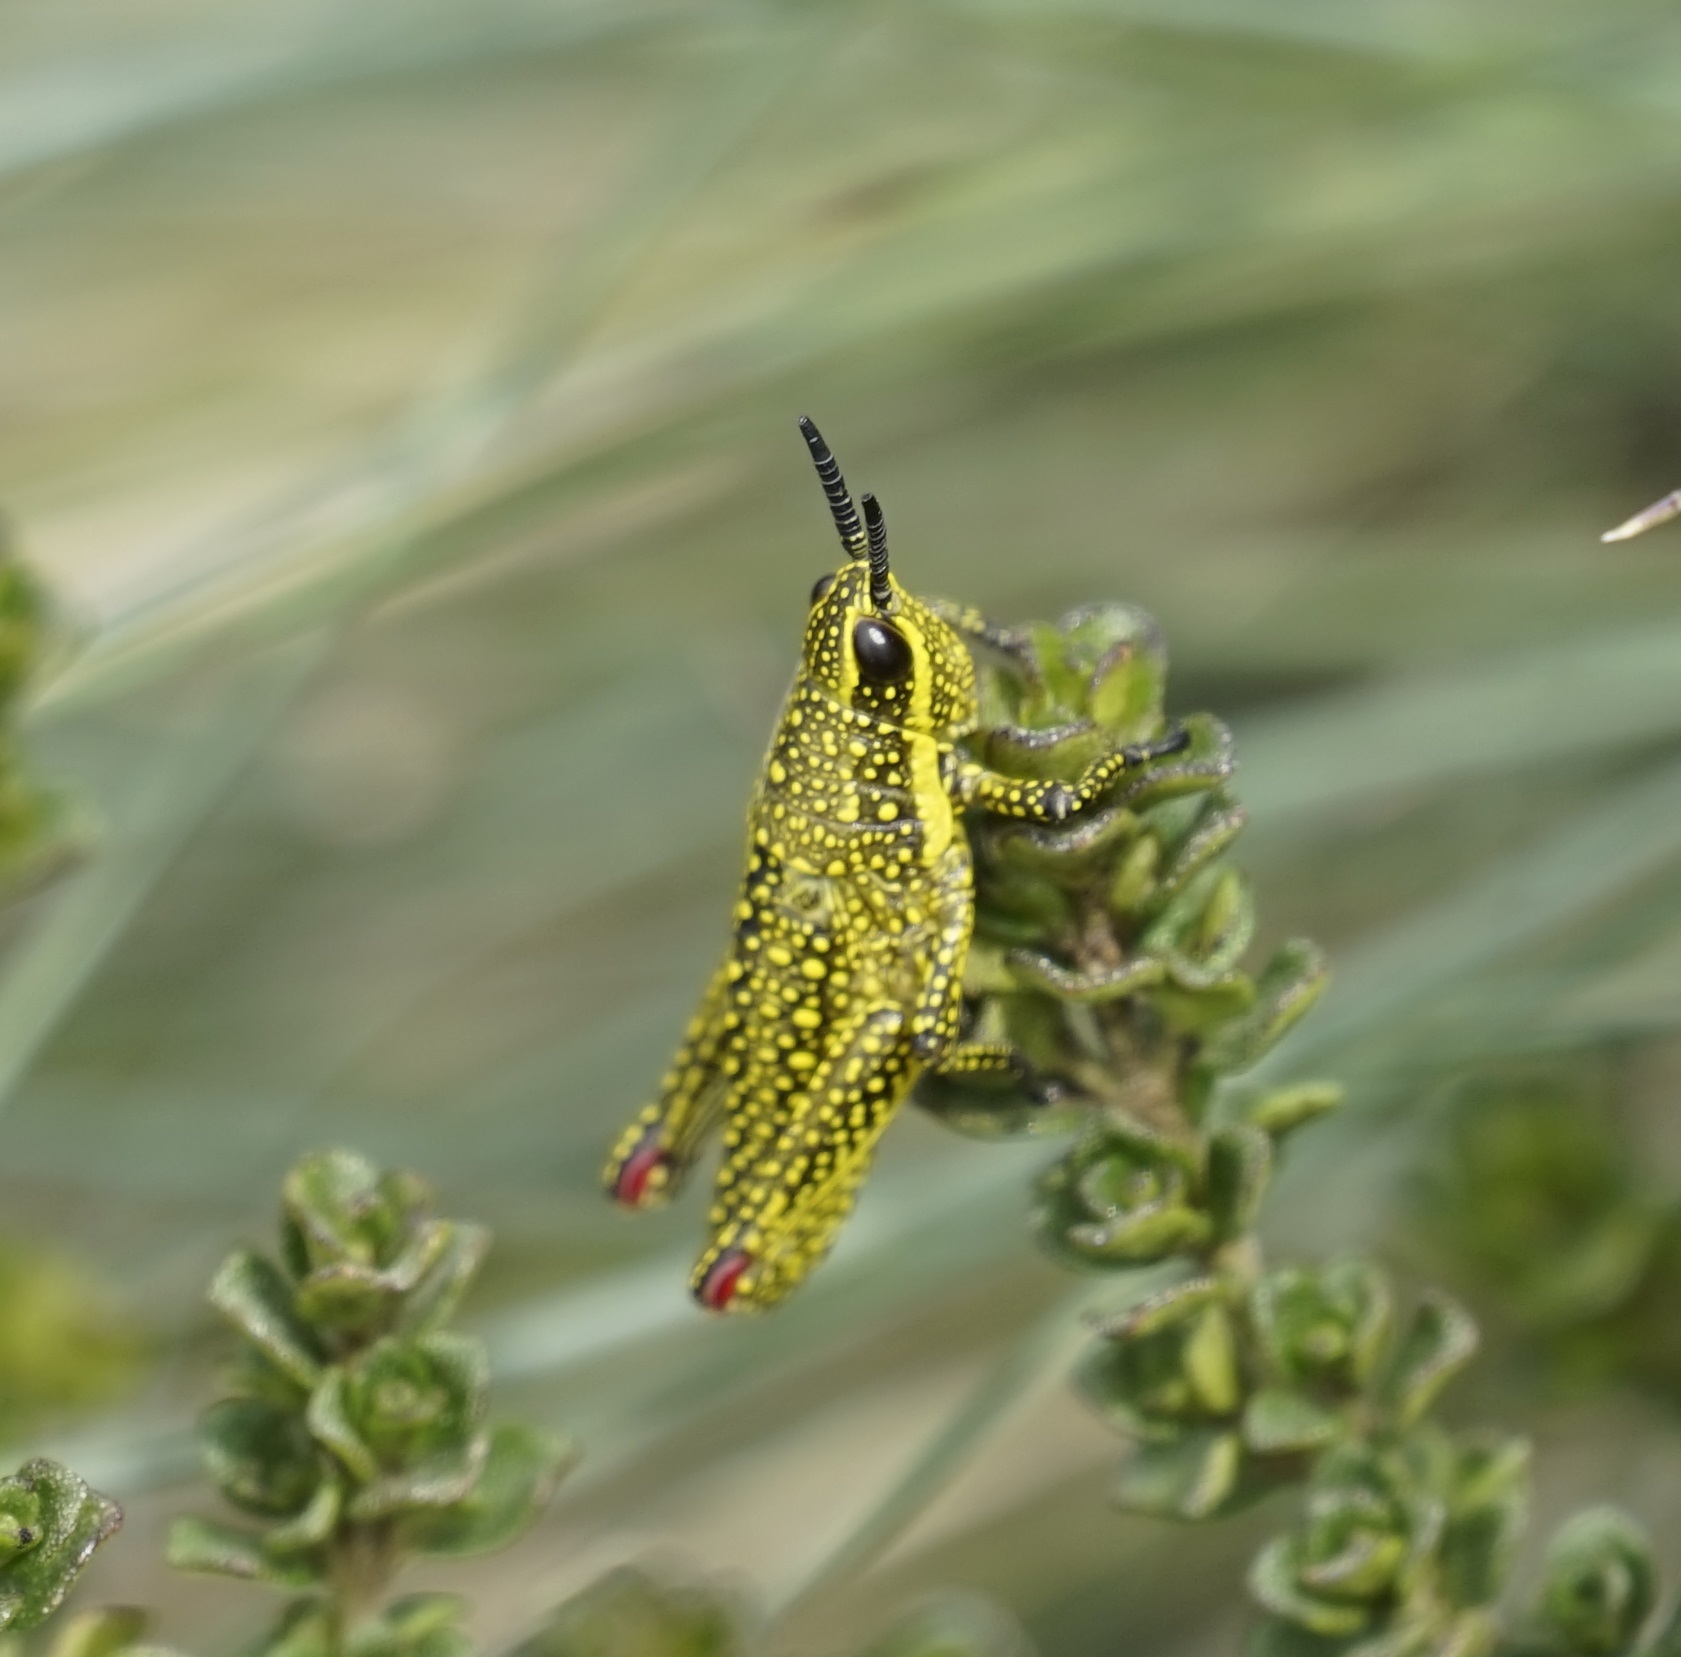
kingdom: Animalia
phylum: Arthropoda
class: Insecta
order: Orthoptera
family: Pyrgomorphidae
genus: Monistria
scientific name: Monistria concinna
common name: Southern pyrgomorph
